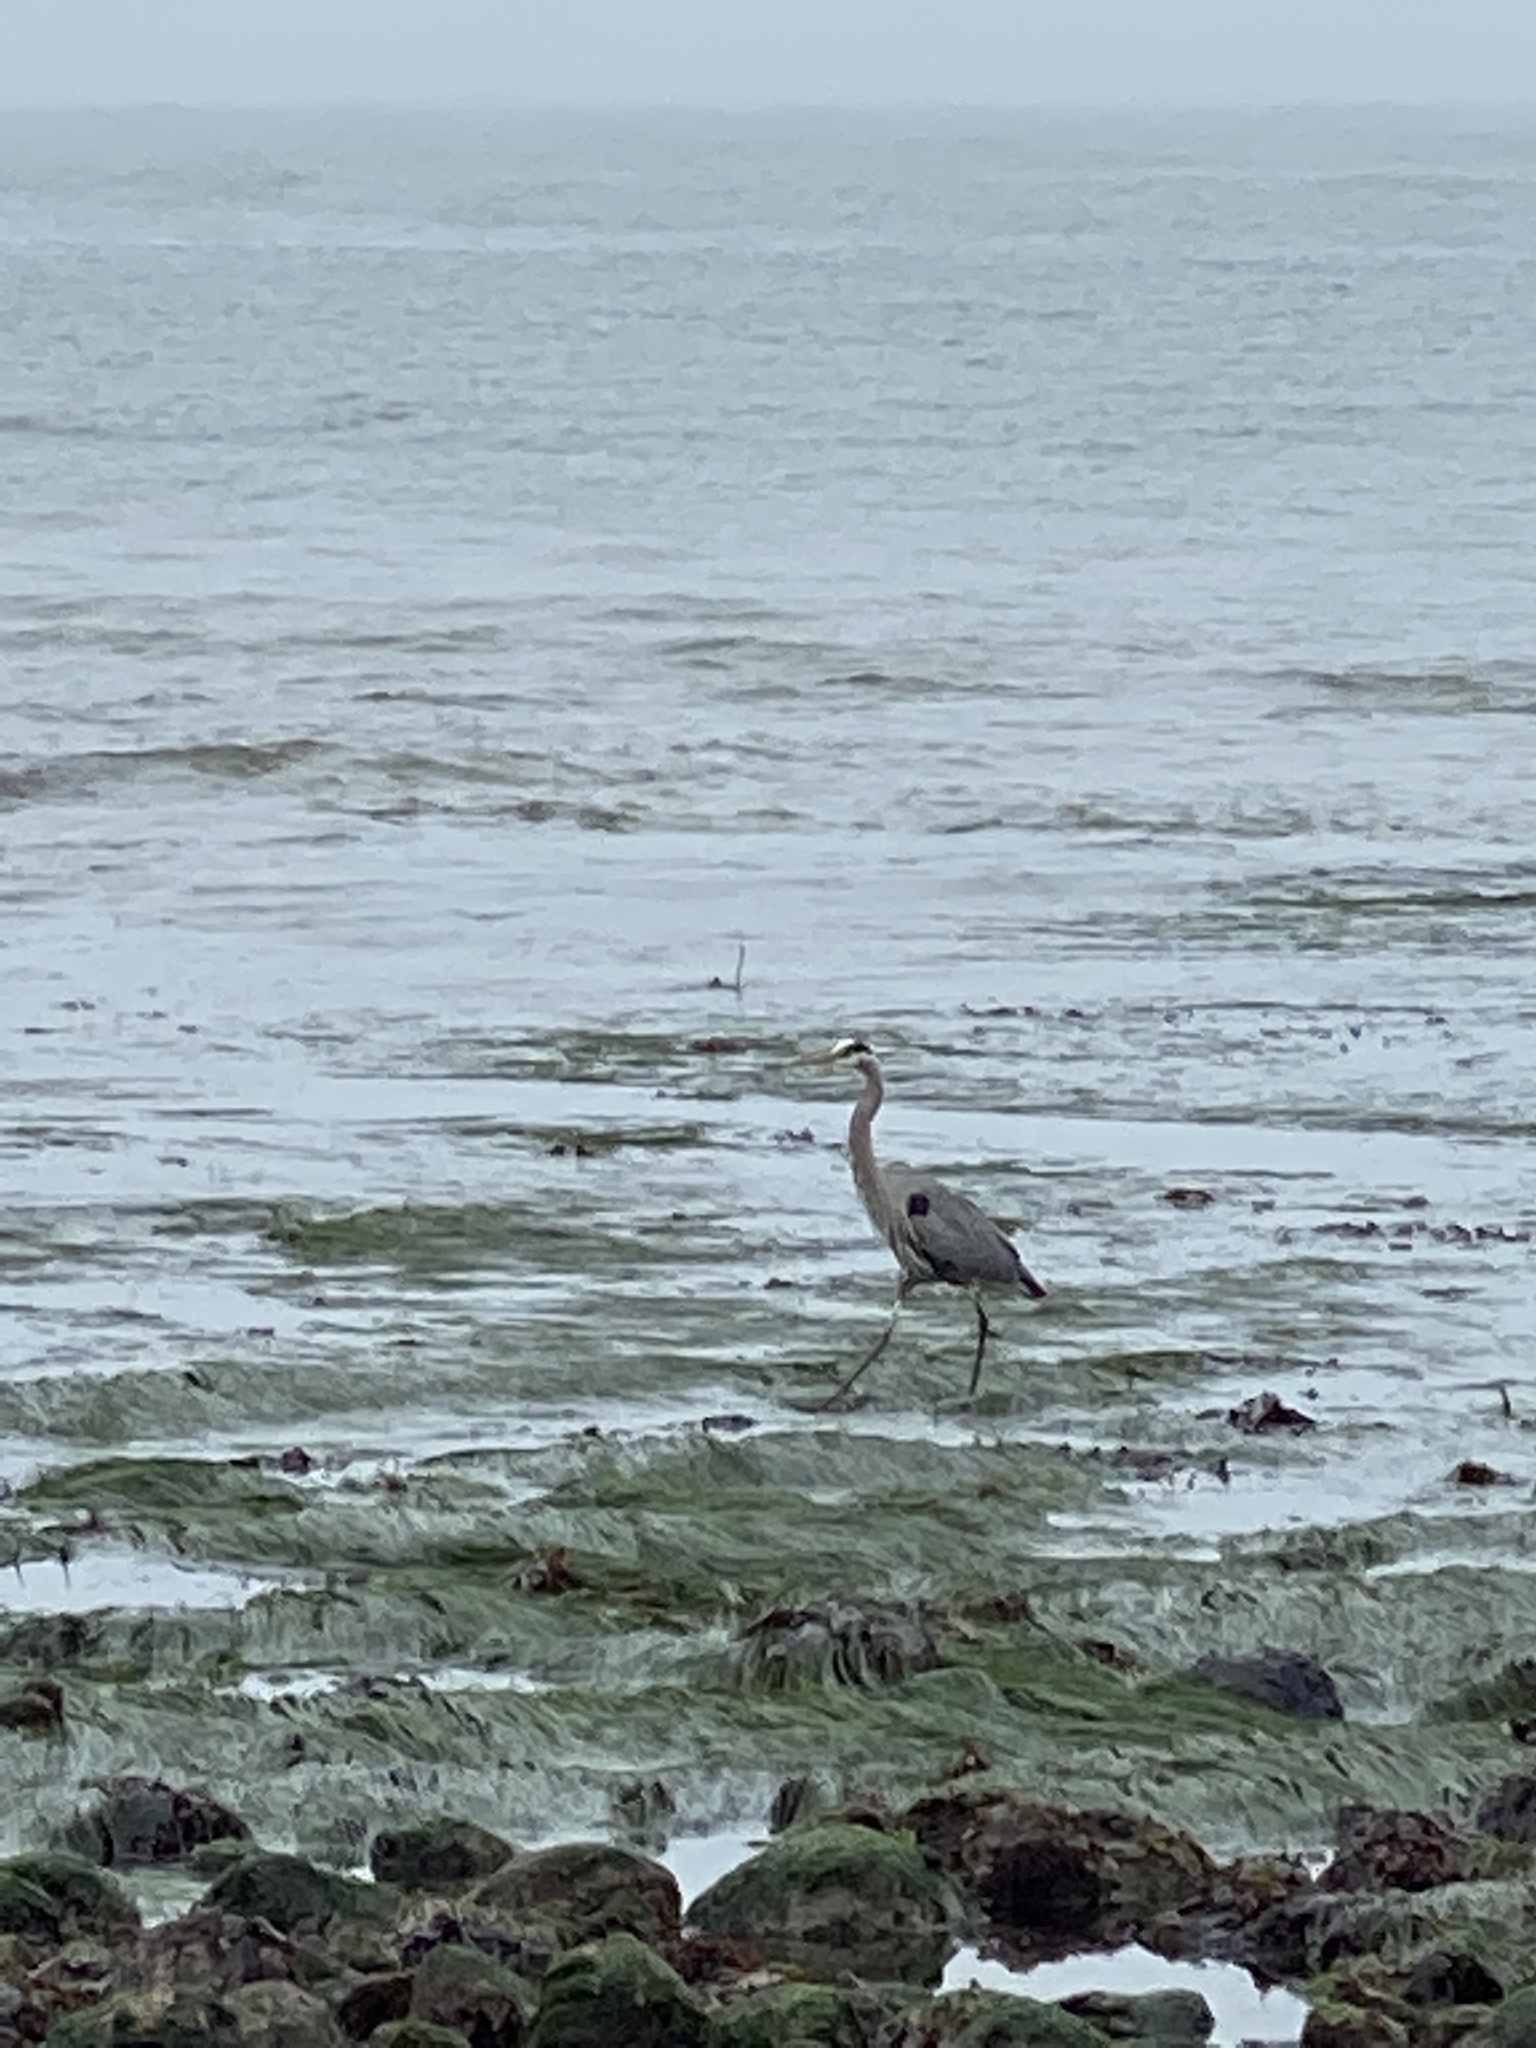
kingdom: Animalia
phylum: Chordata
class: Aves
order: Pelecaniformes
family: Ardeidae
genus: Ardea
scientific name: Ardea herodias
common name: Great blue heron
